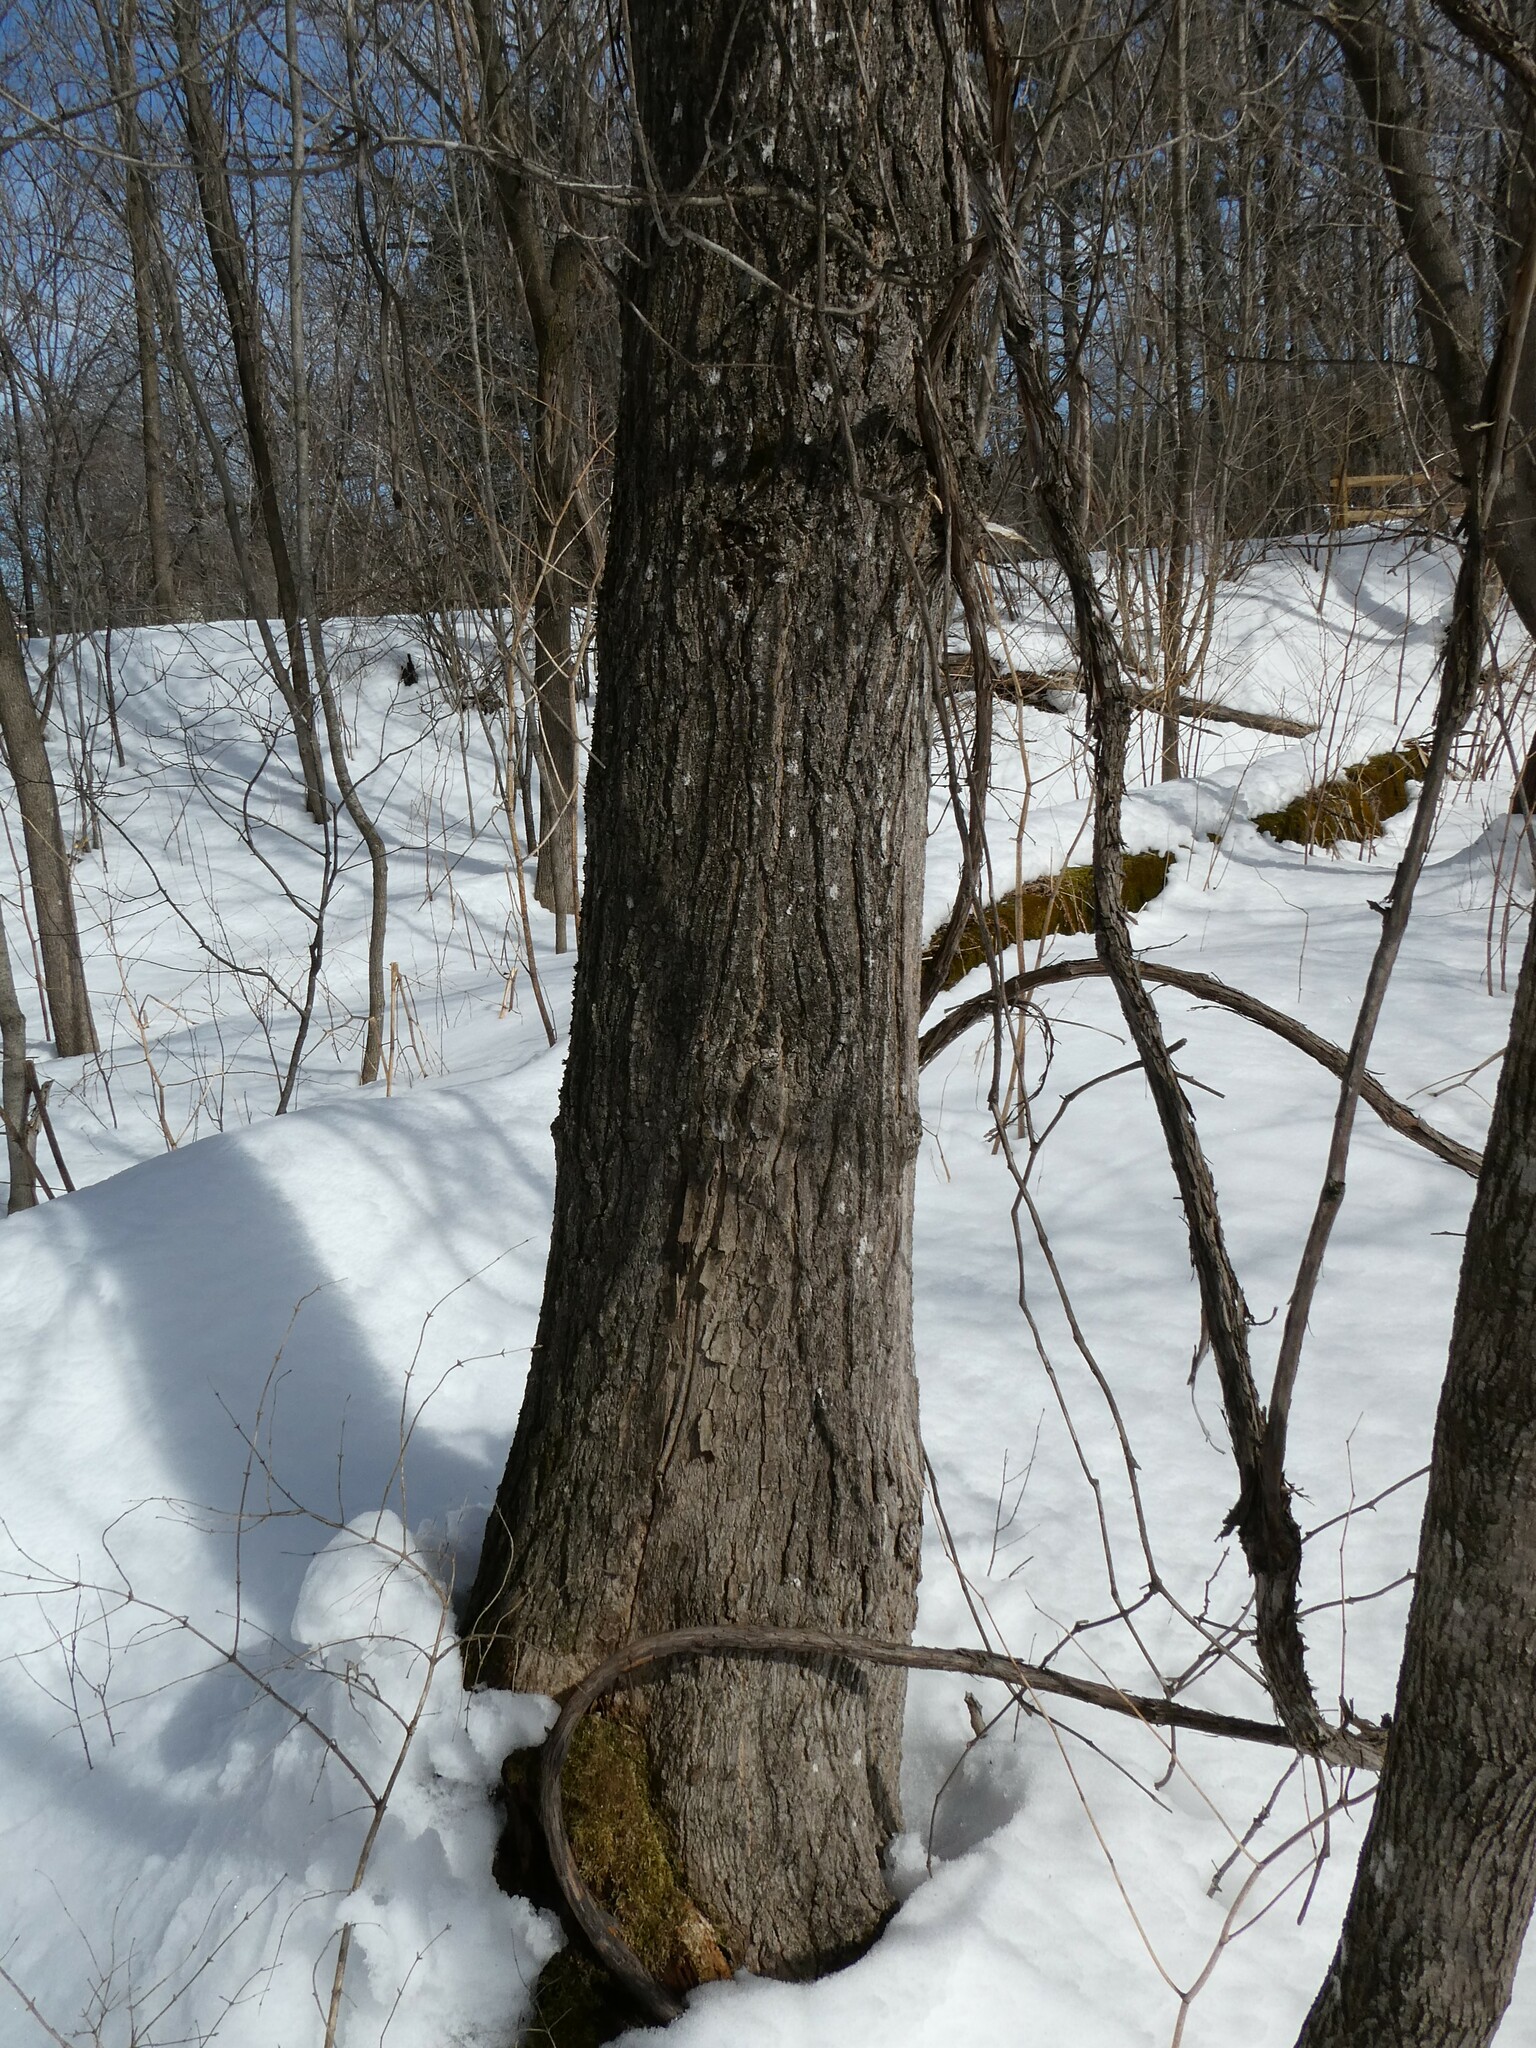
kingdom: Plantae
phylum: Tracheophyta
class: Magnoliopsida
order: Sapindales
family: Sapindaceae
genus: Acer
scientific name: Acer saccharum
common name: Sugar maple
